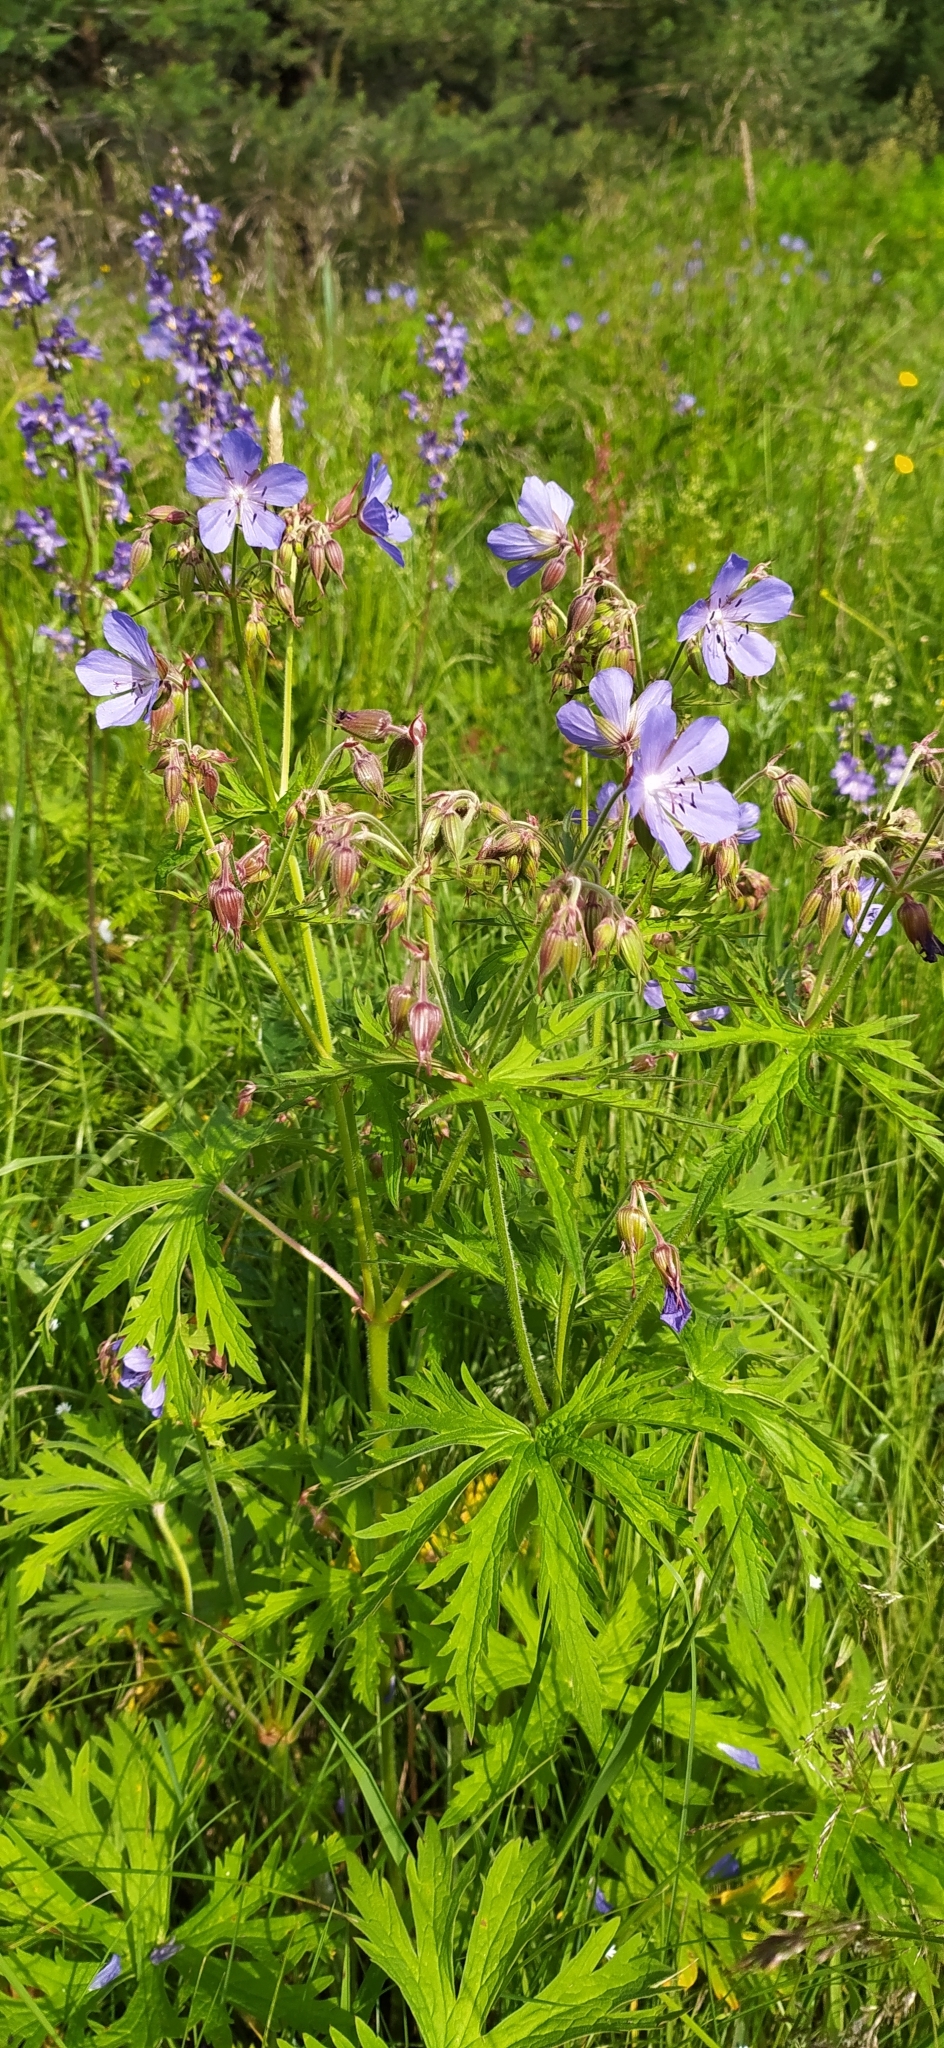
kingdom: Plantae
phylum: Tracheophyta
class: Magnoliopsida
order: Geraniales
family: Geraniaceae
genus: Geranium
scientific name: Geranium pratense
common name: Meadow crane's-bill
